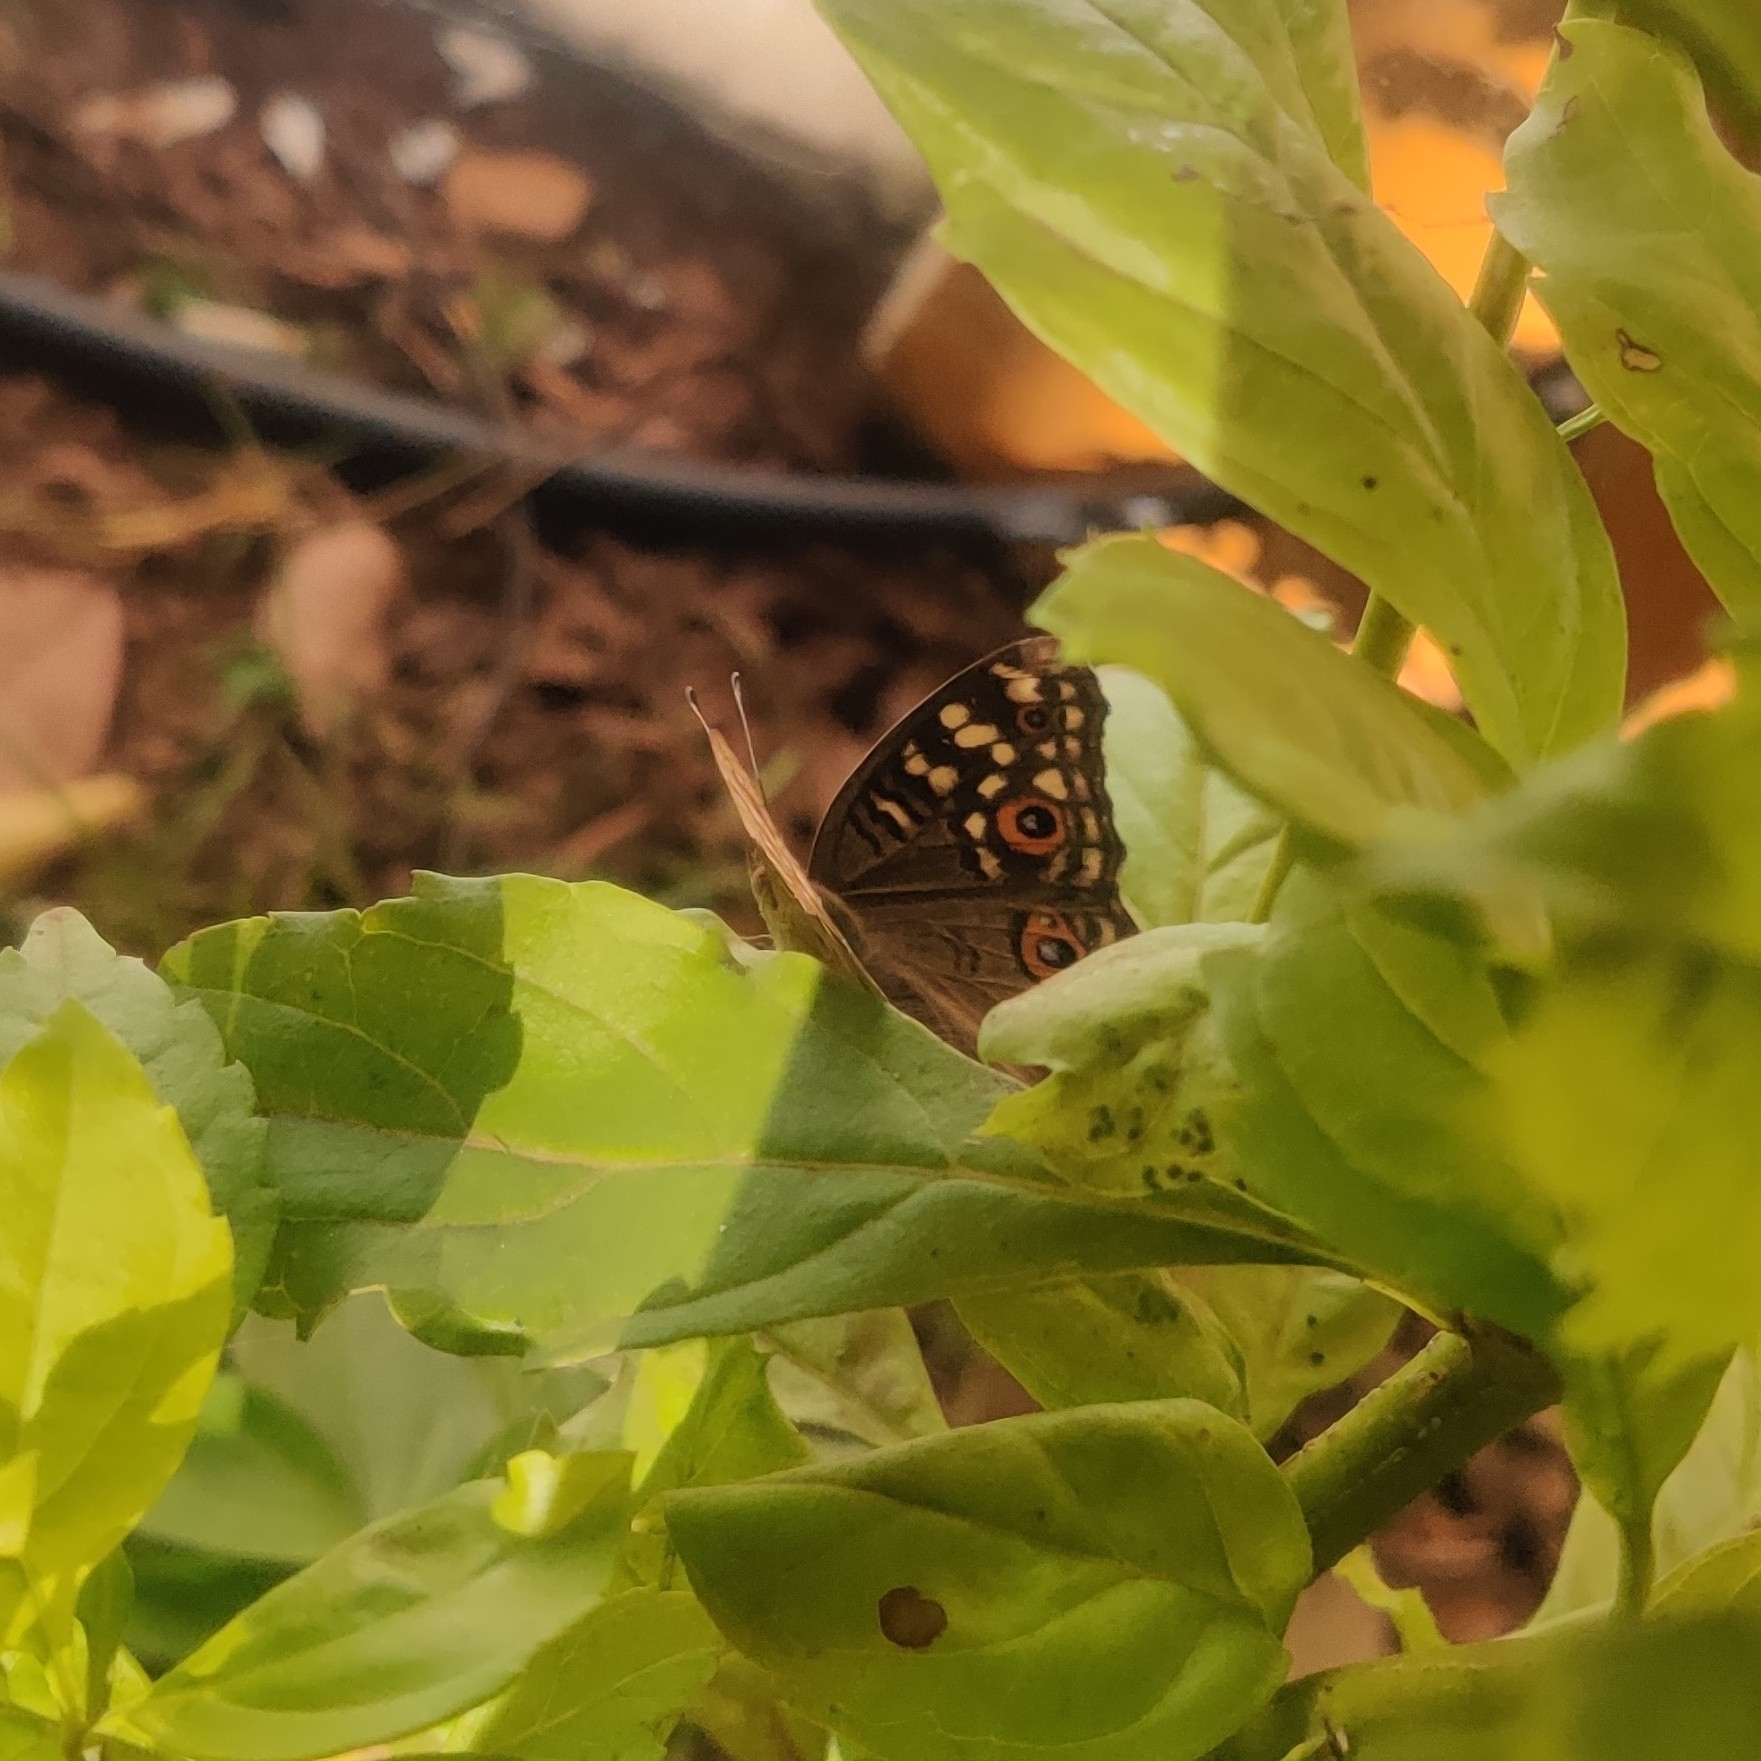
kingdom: Animalia
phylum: Arthropoda
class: Insecta
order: Lepidoptera
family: Nymphalidae
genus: Junonia
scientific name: Junonia lemonias
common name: Lemon pansy
